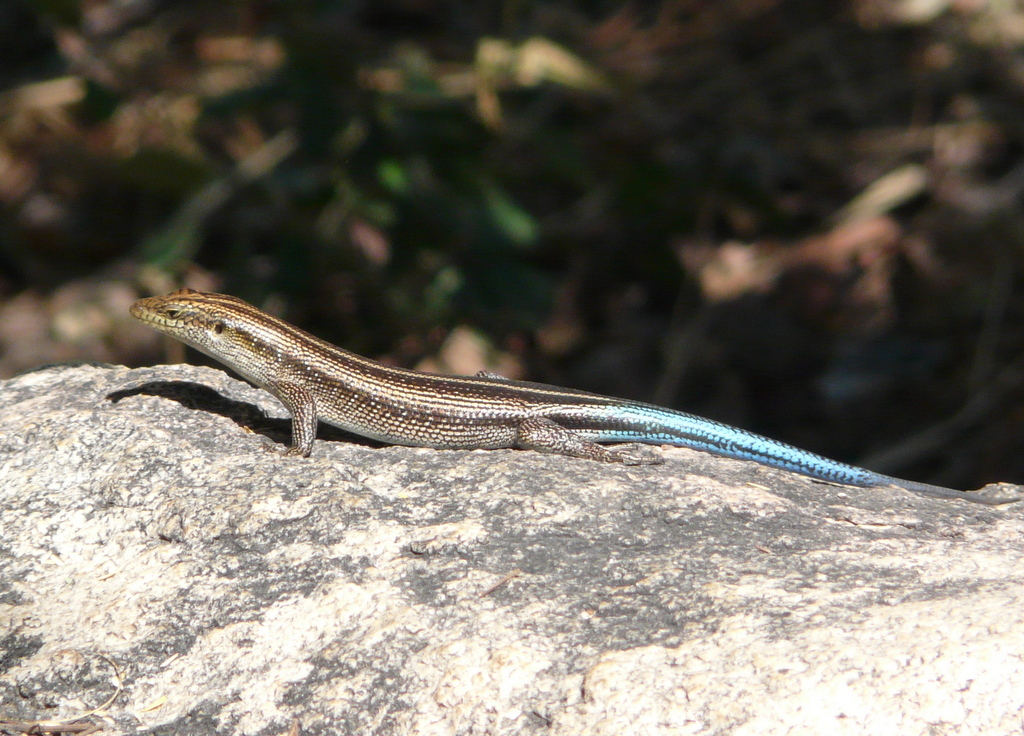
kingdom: Animalia
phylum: Chordata
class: Squamata
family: Scincidae
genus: Trachylepis
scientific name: Trachylepis margaritifera
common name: Rainbow skink
